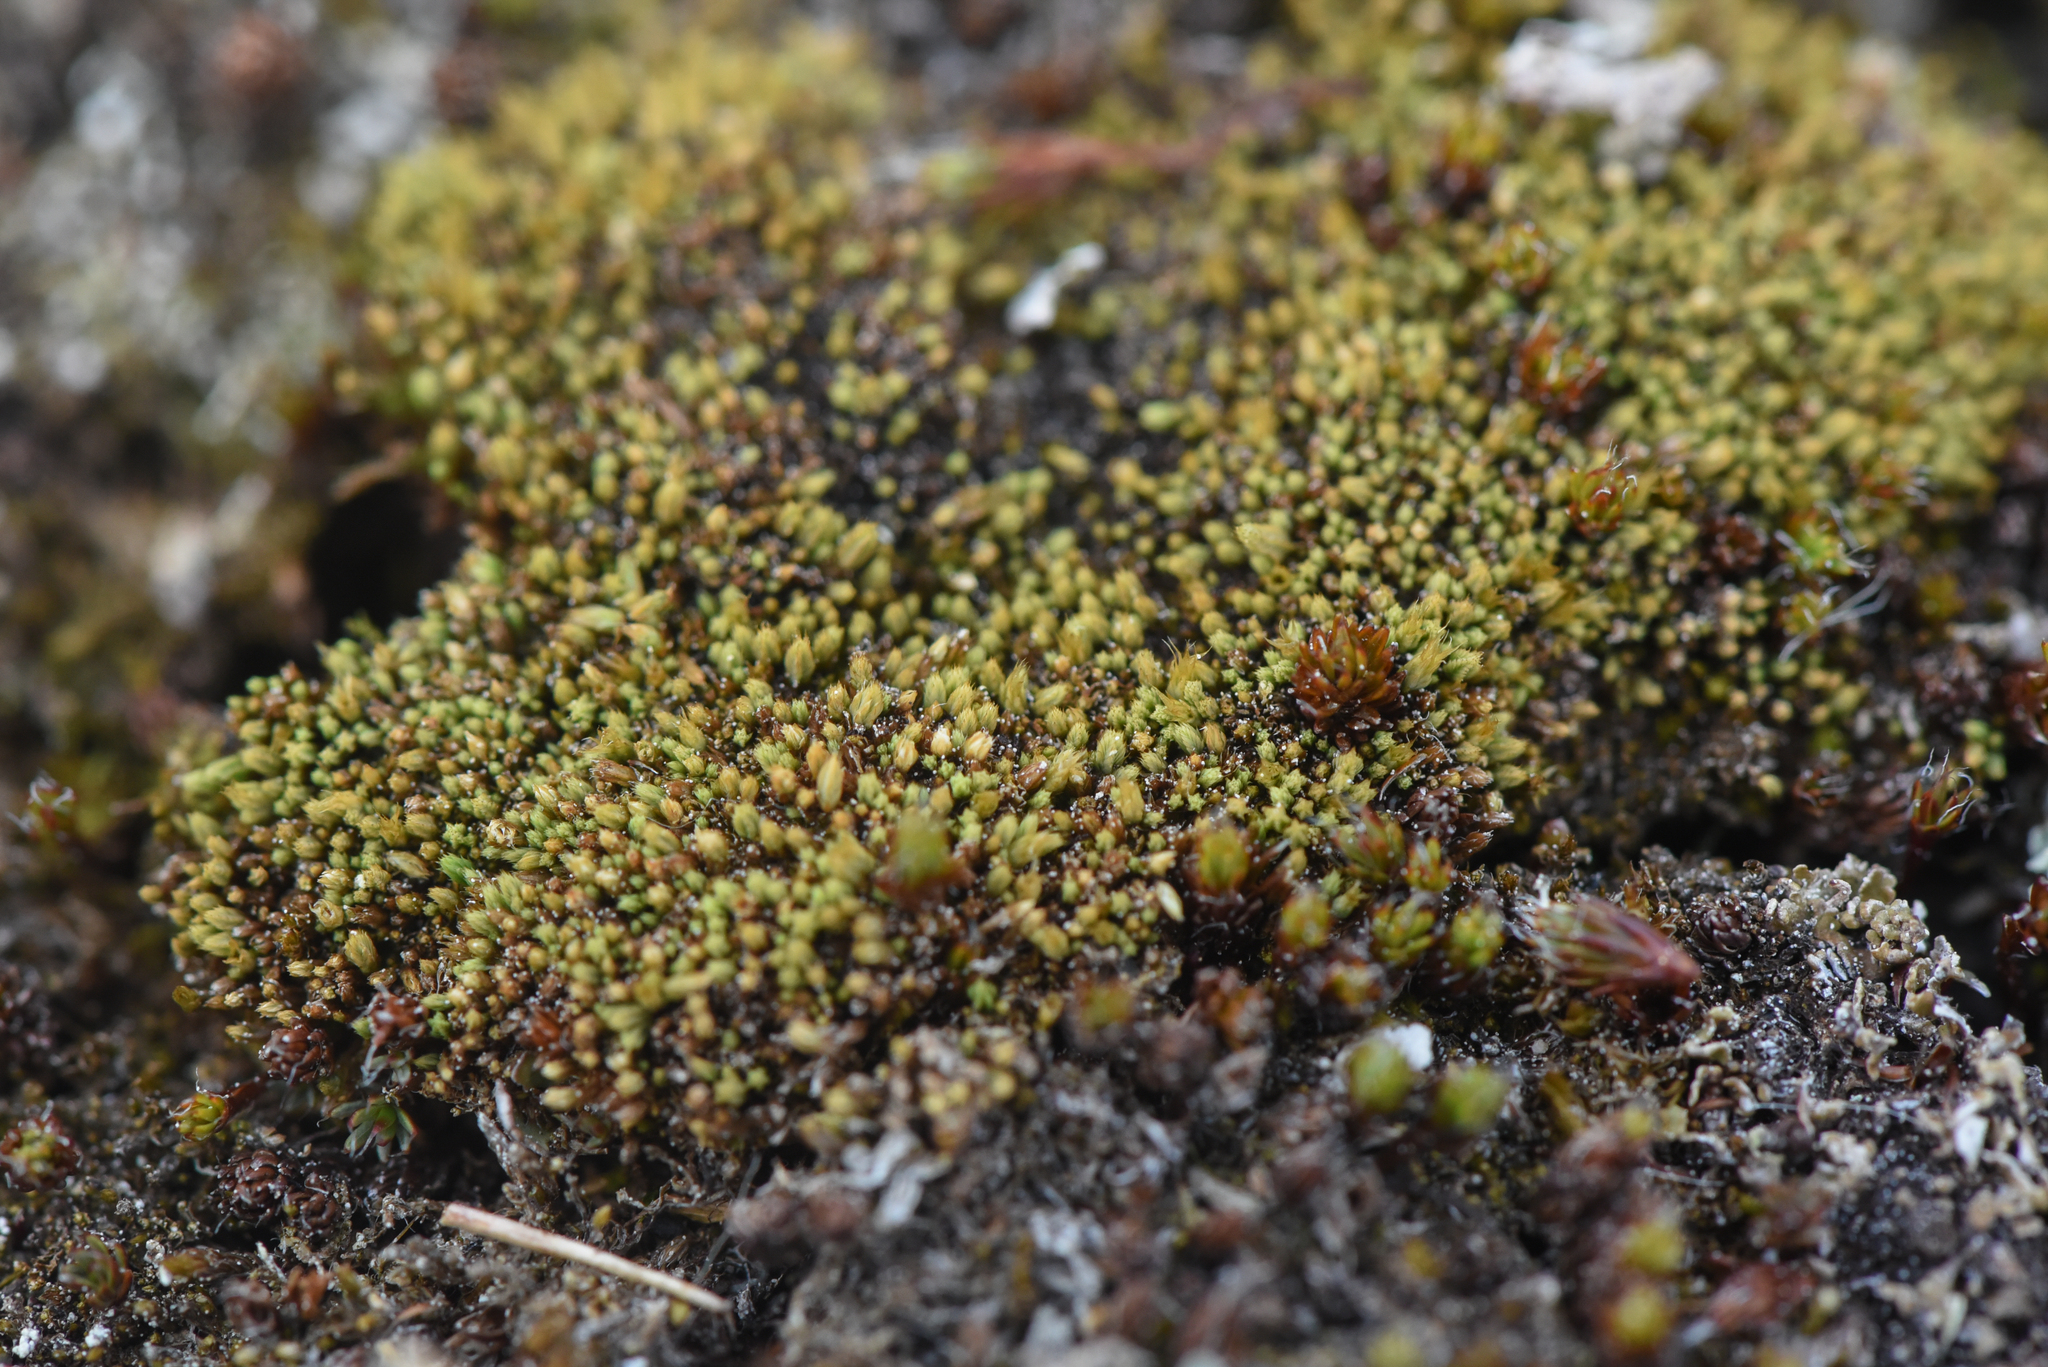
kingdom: Plantae
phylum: Bryophyta
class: Bryopsida
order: Bartramiales
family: Bartramiaceae
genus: Conostomum
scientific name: Conostomum tetragonum
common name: Helmet moss
